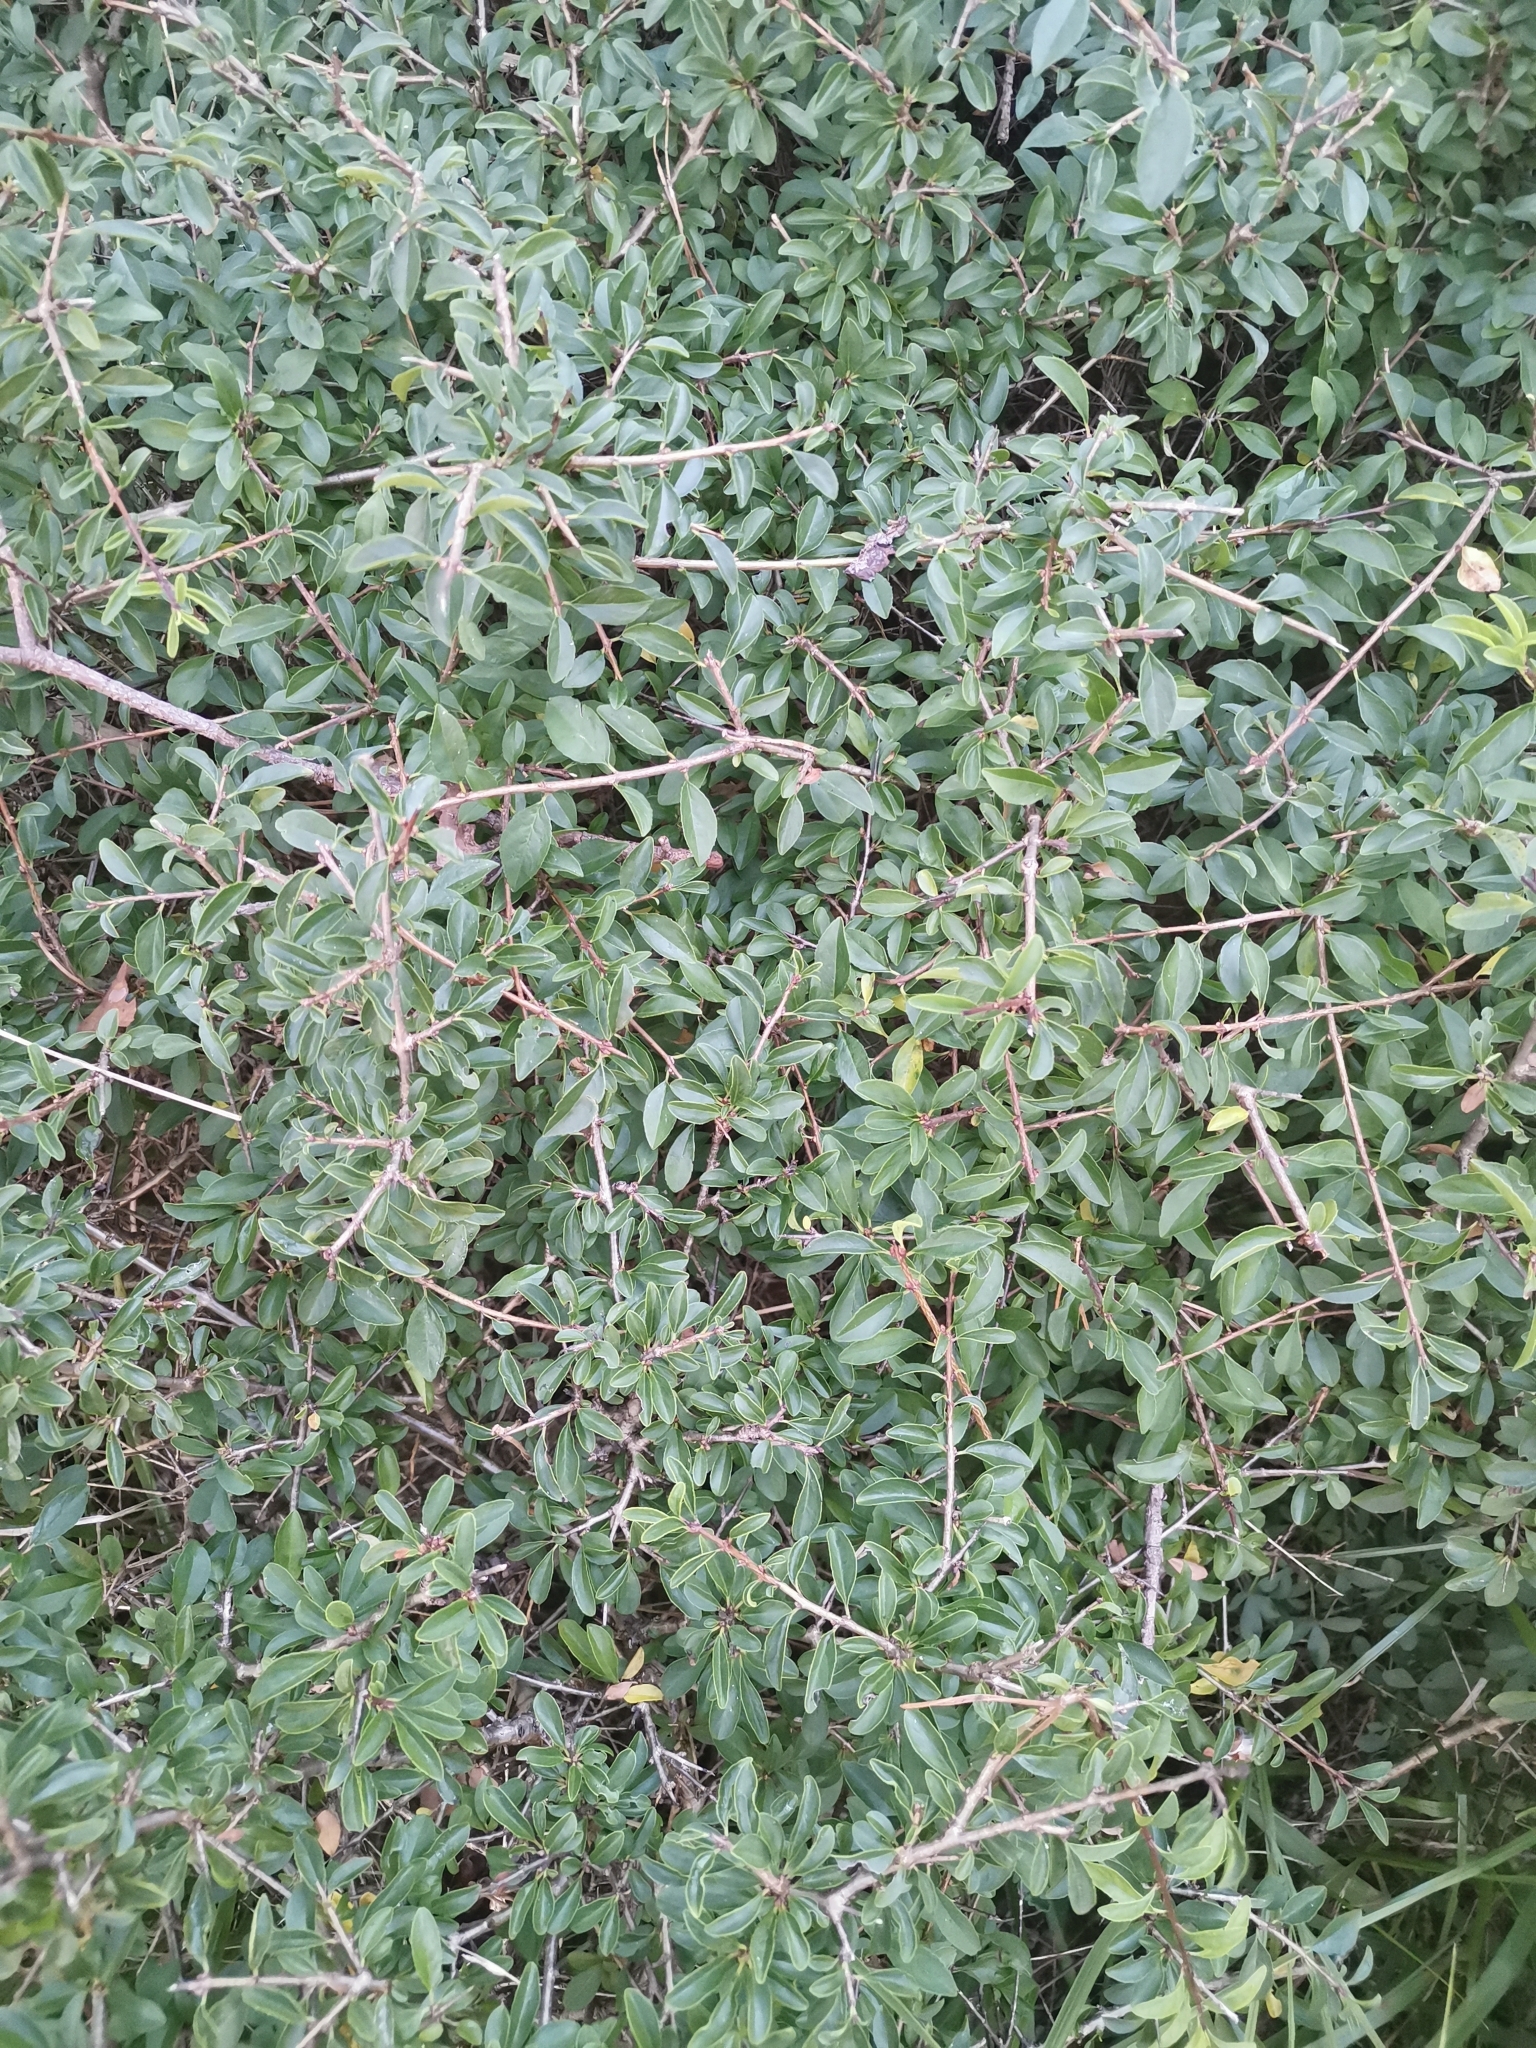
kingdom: Plantae
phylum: Tracheophyta
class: Magnoliopsida
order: Rosales
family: Rhamnaceae
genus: Rhamnus
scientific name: Rhamnus saxatilis
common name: Rock buckthorn
